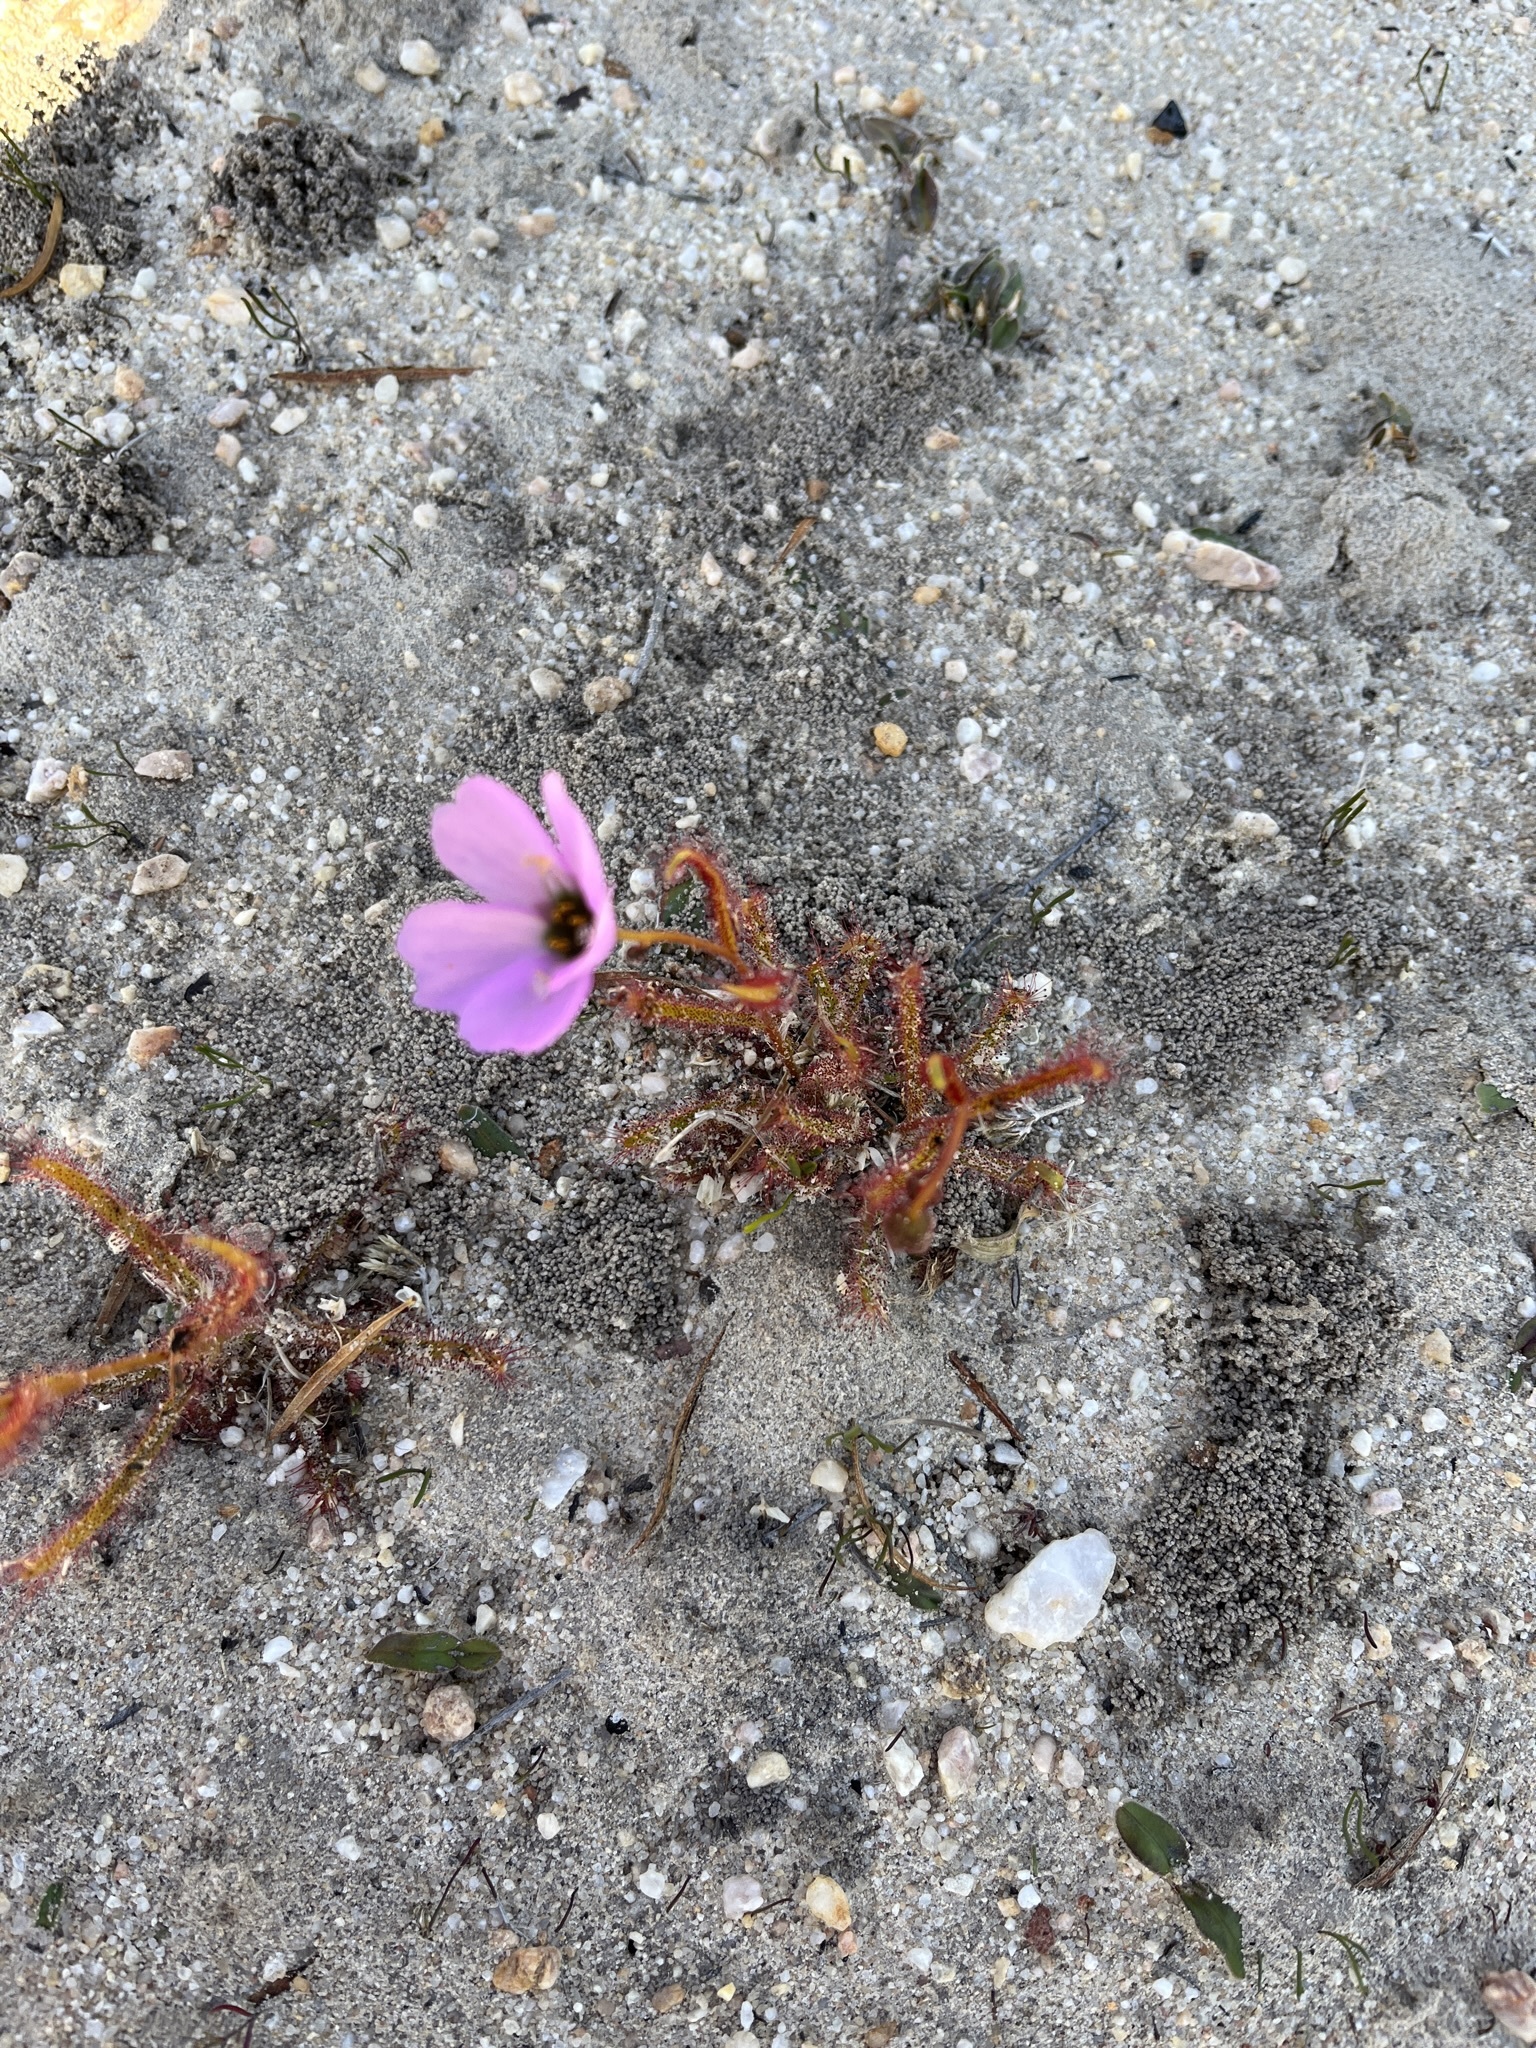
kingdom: Plantae
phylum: Tracheophyta
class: Magnoliopsida
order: Caryophyllales
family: Droseraceae
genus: Drosera
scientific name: Drosera cistiflora
